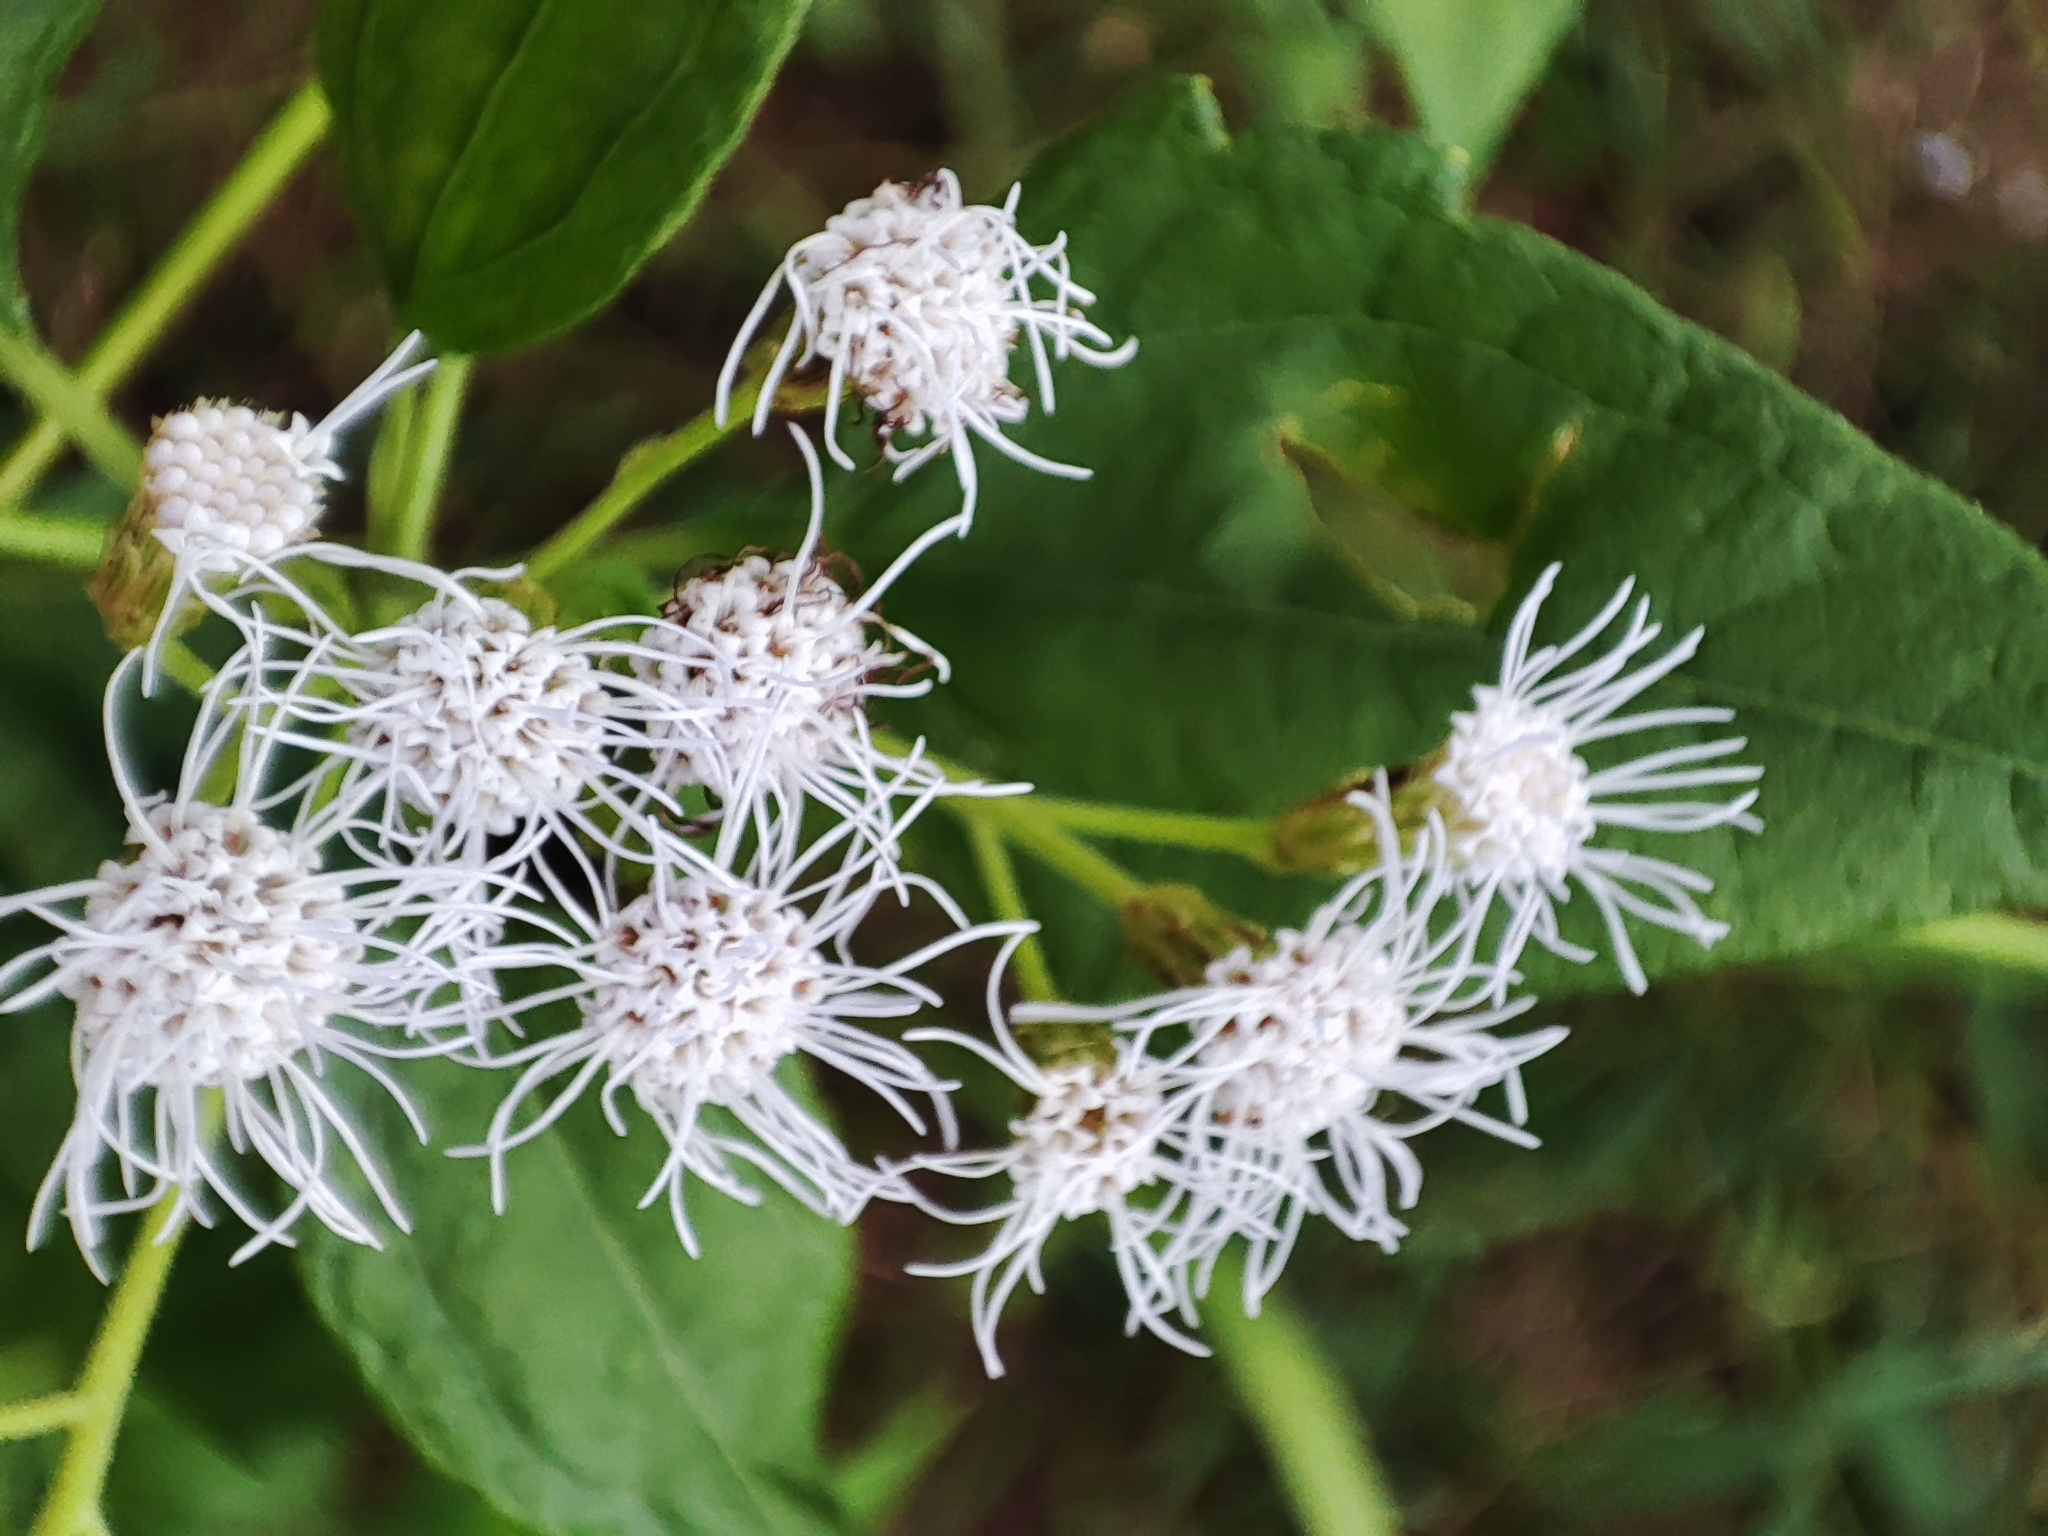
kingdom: Plantae
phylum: Tracheophyta
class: Magnoliopsida
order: Asterales
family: Asteraceae
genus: Chromolaena
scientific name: Chromolaena odorata
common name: Siamweed
